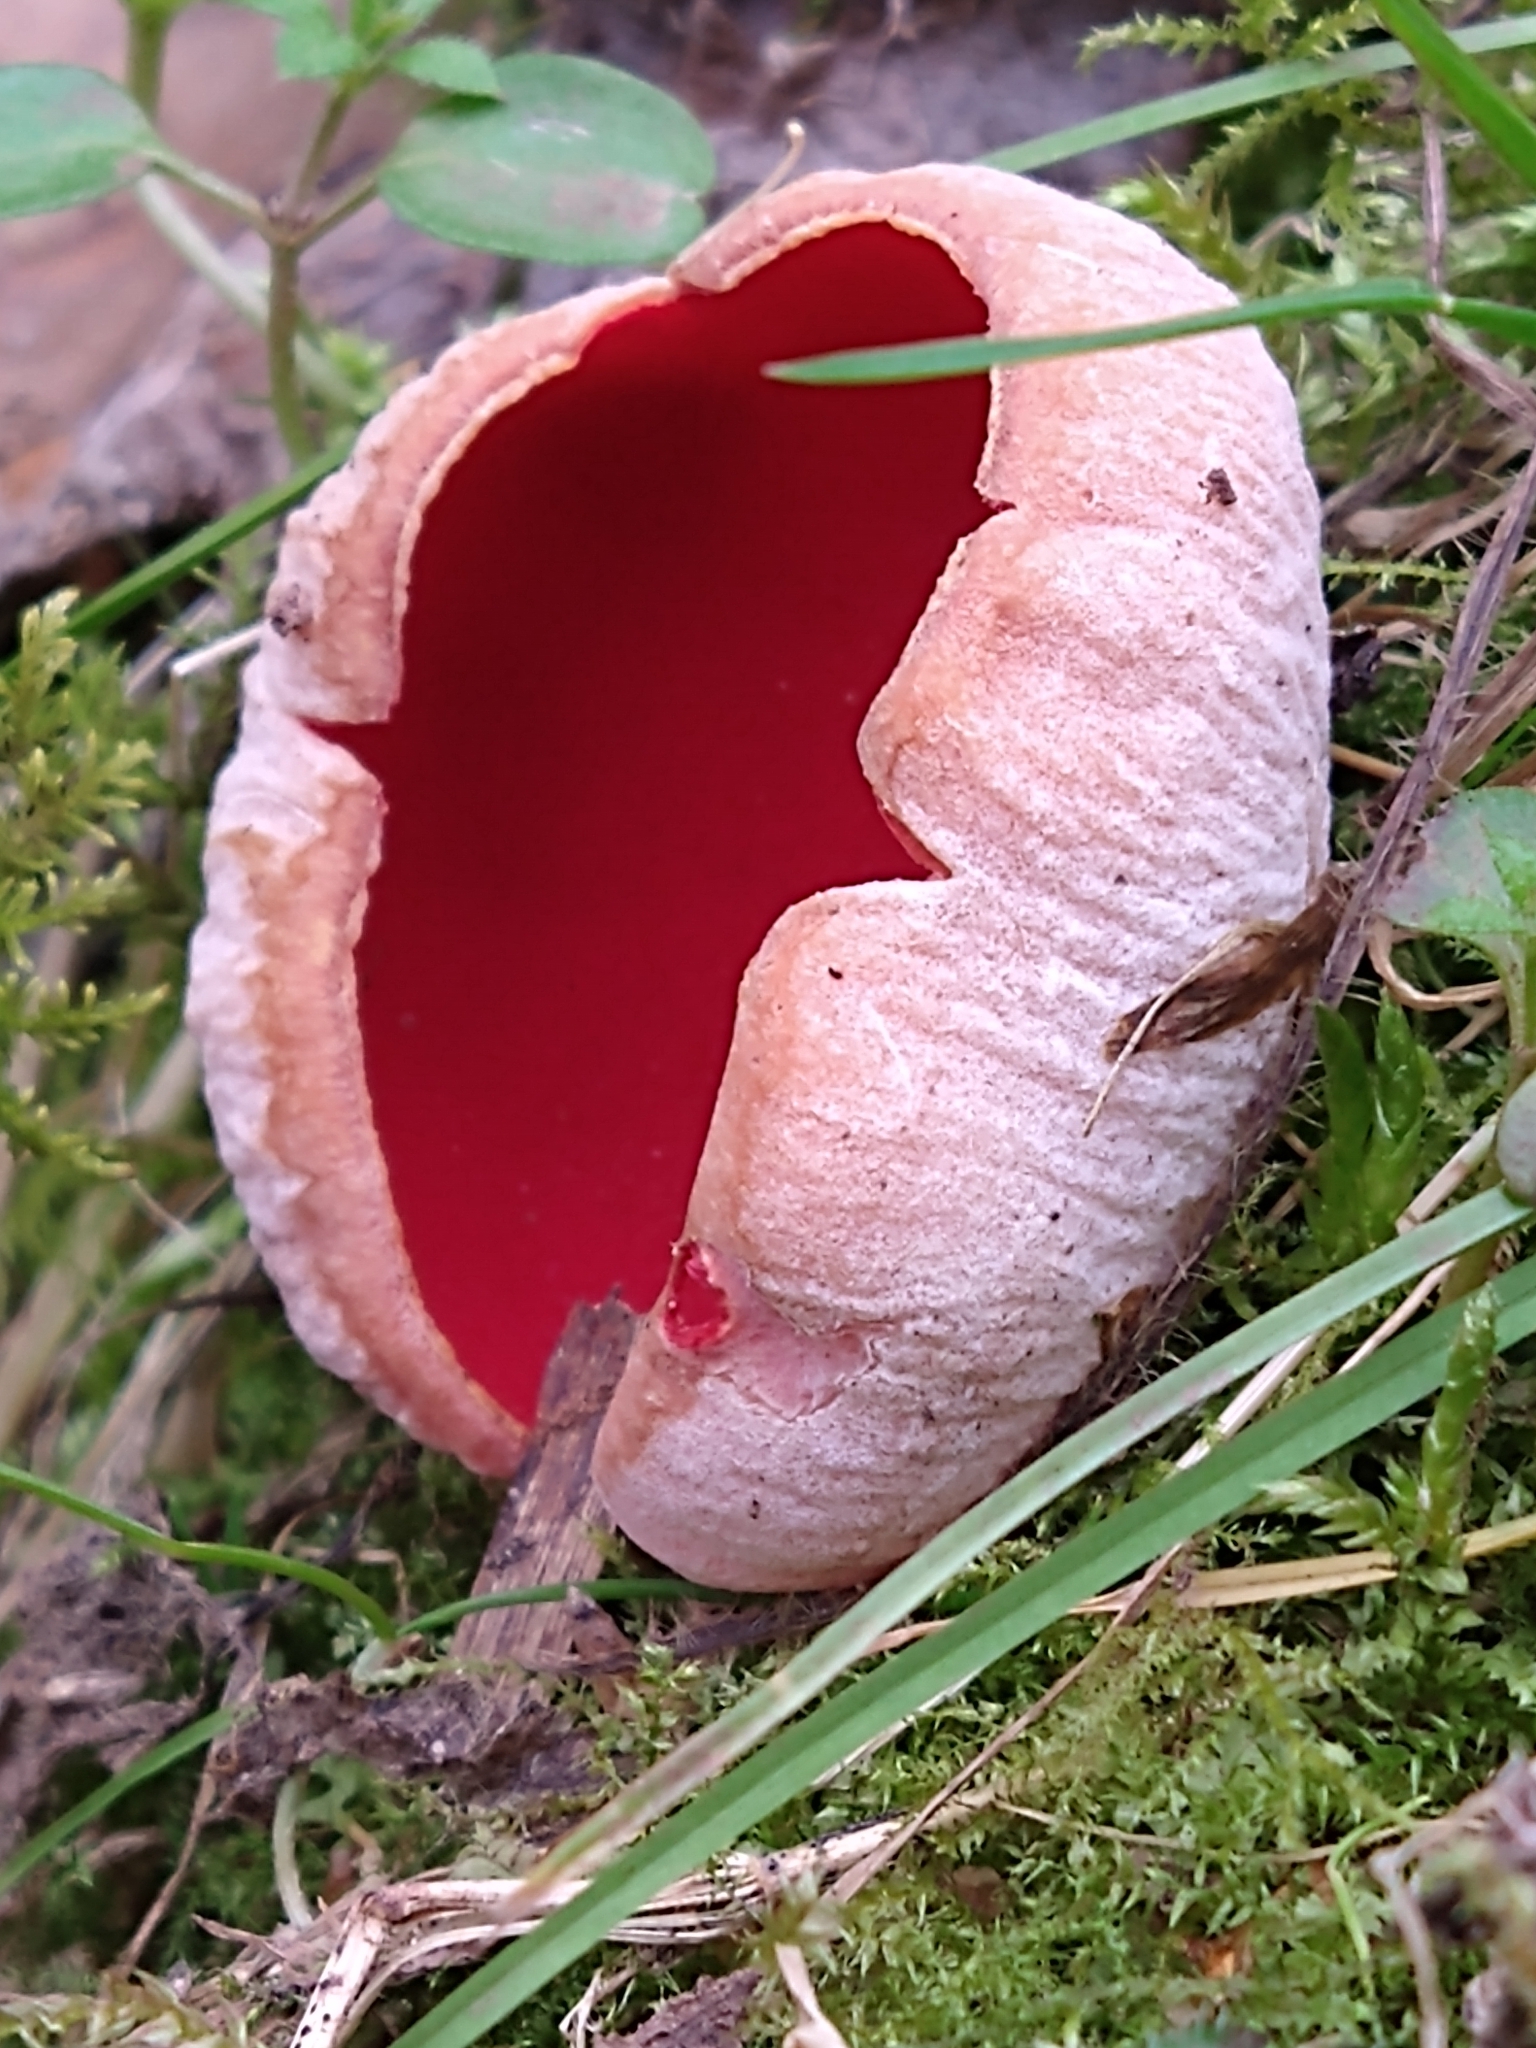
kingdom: Fungi
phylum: Ascomycota
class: Pezizomycetes
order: Pezizales
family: Sarcoscyphaceae
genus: Sarcoscypha
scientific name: Sarcoscypha
